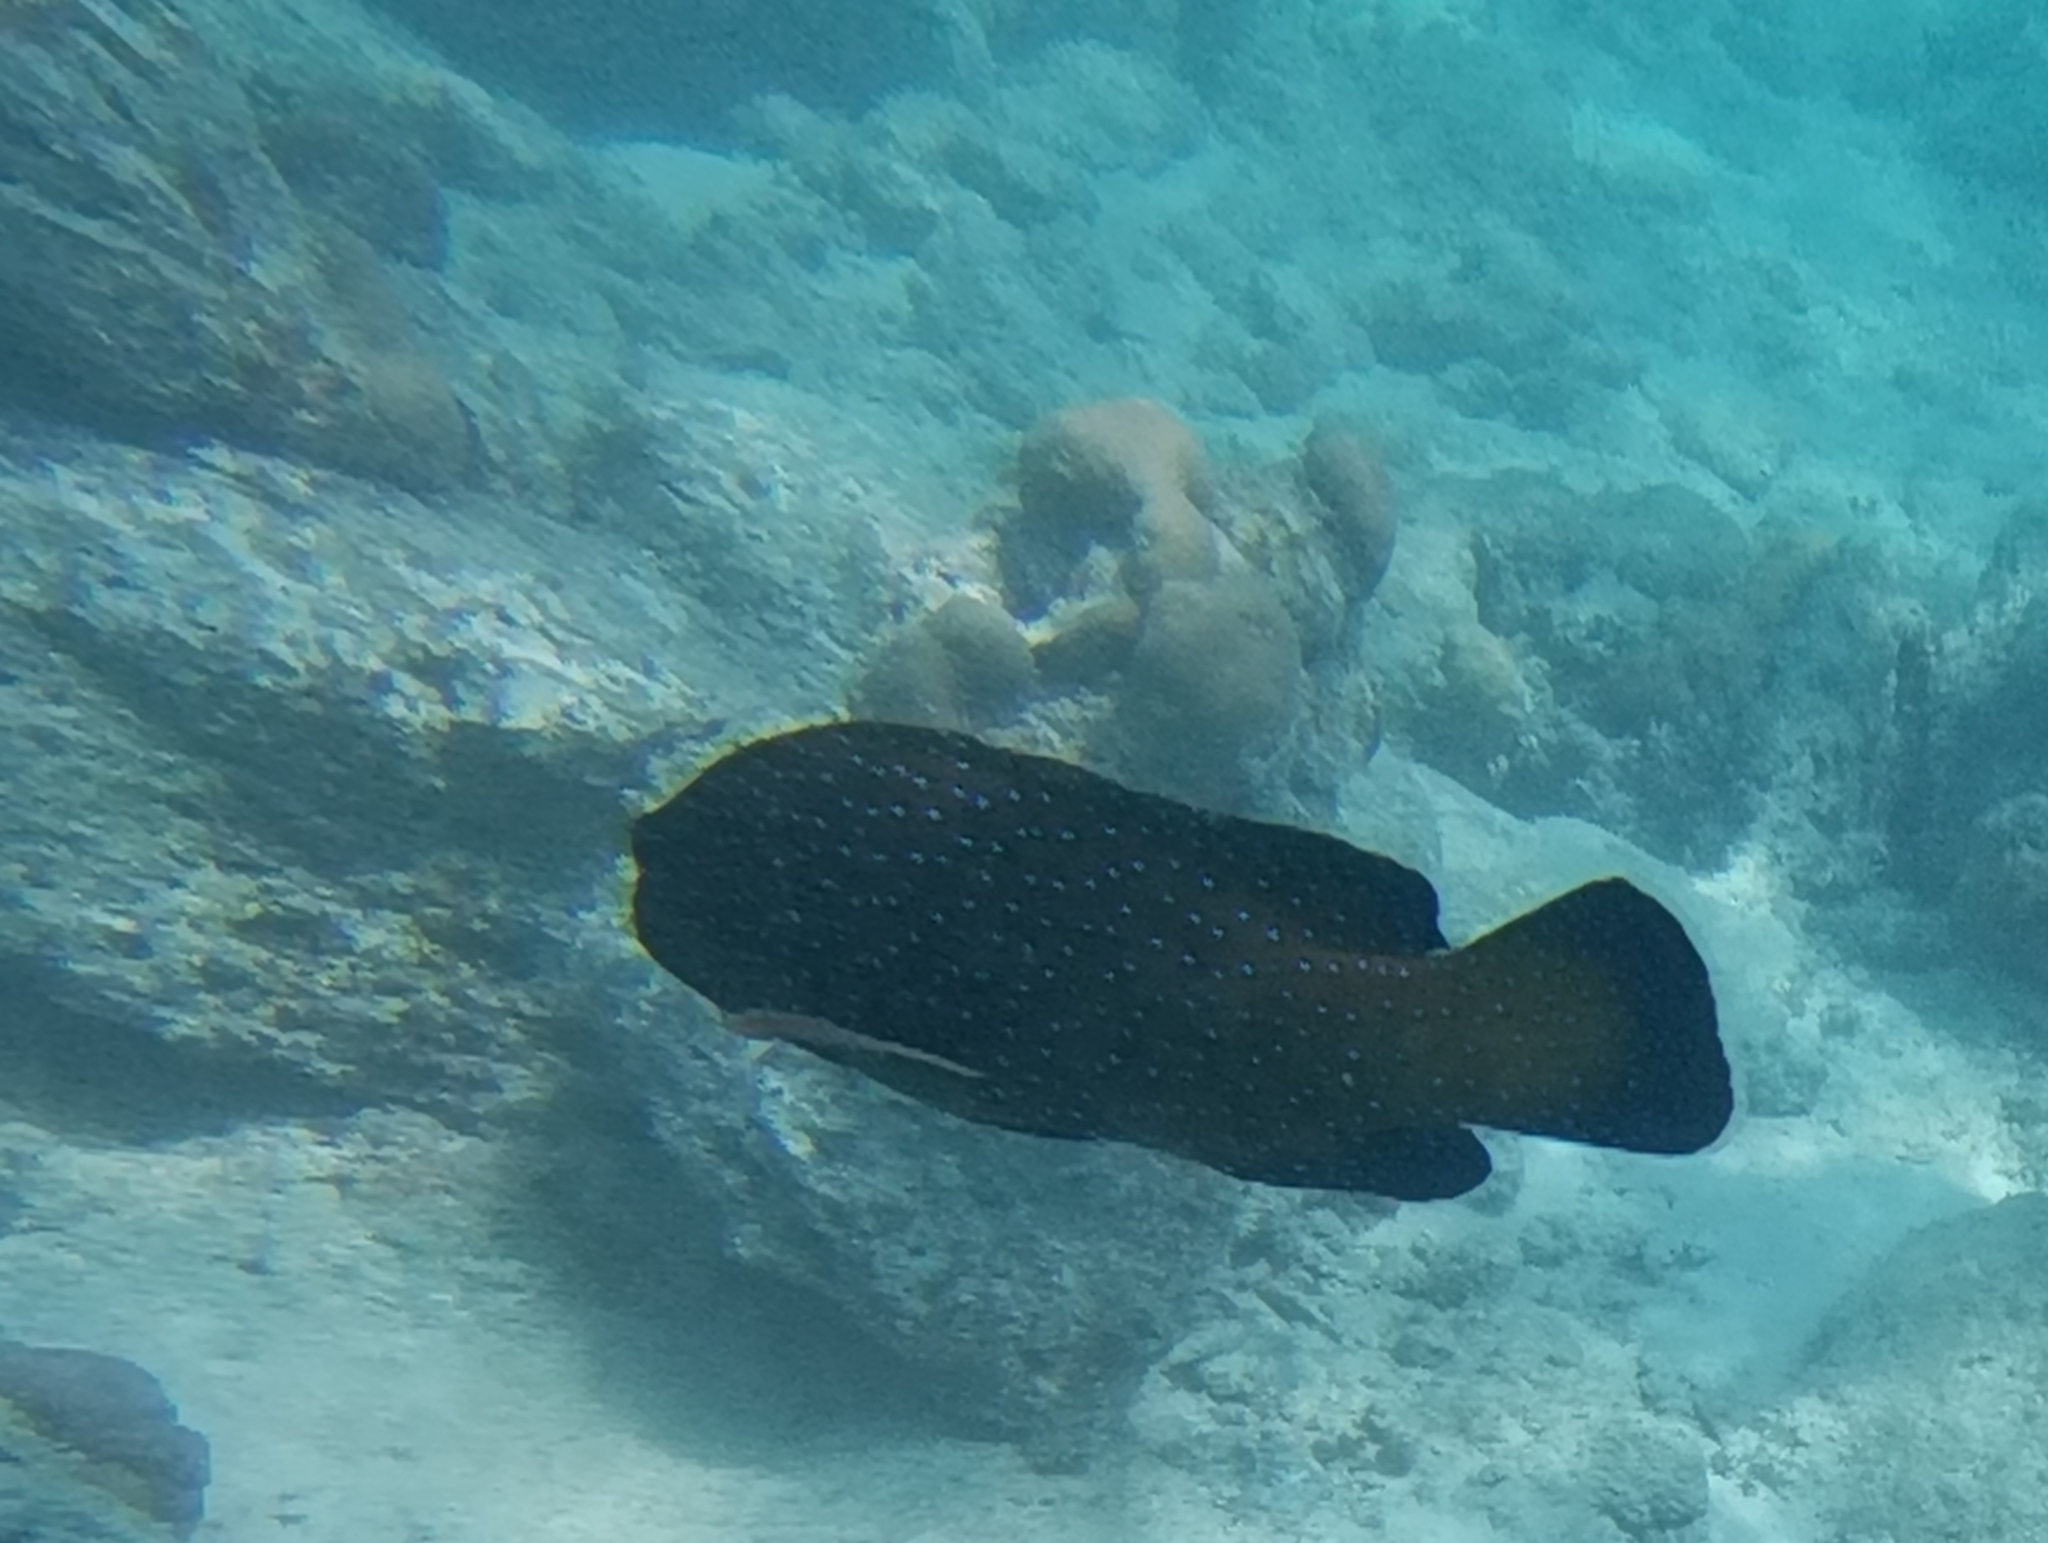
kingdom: Animalia
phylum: Chordata
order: Perciformes
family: Serranidae
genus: Cephalopholis
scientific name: Cephalopholis argus
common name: Peacock grouper
